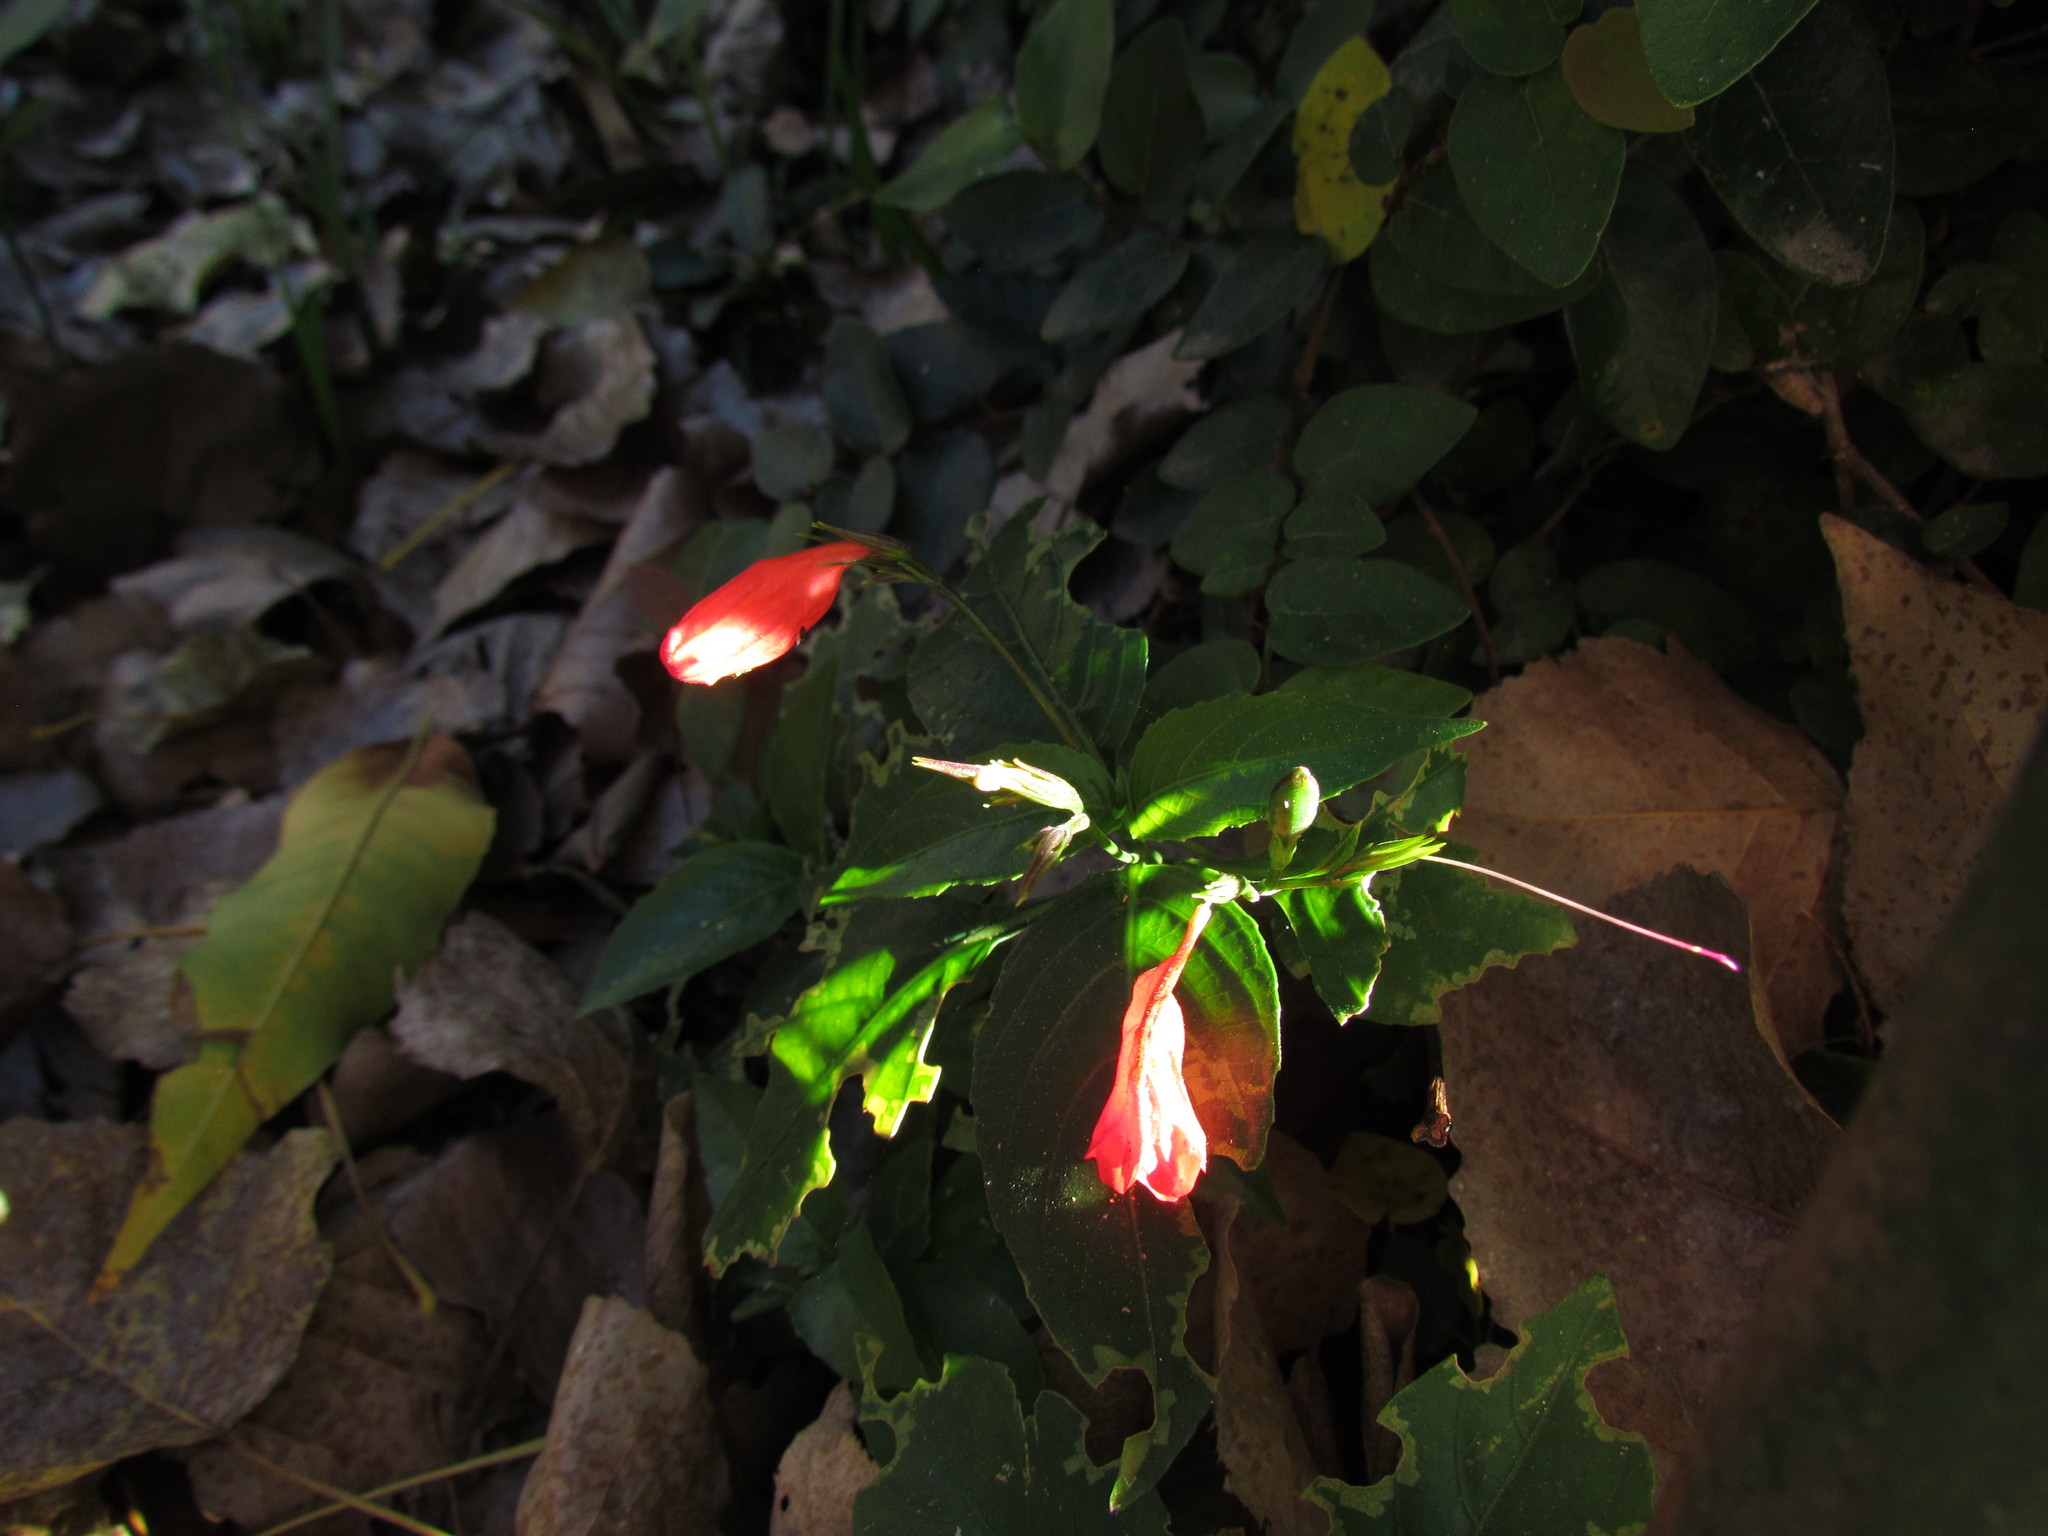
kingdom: Plantae
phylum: Tracheophyta
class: Magnoliopsida
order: Lamiales
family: Acanthaceae
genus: Ruellia
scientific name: Ruellia brevifolia
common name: Tropical wild petunia
